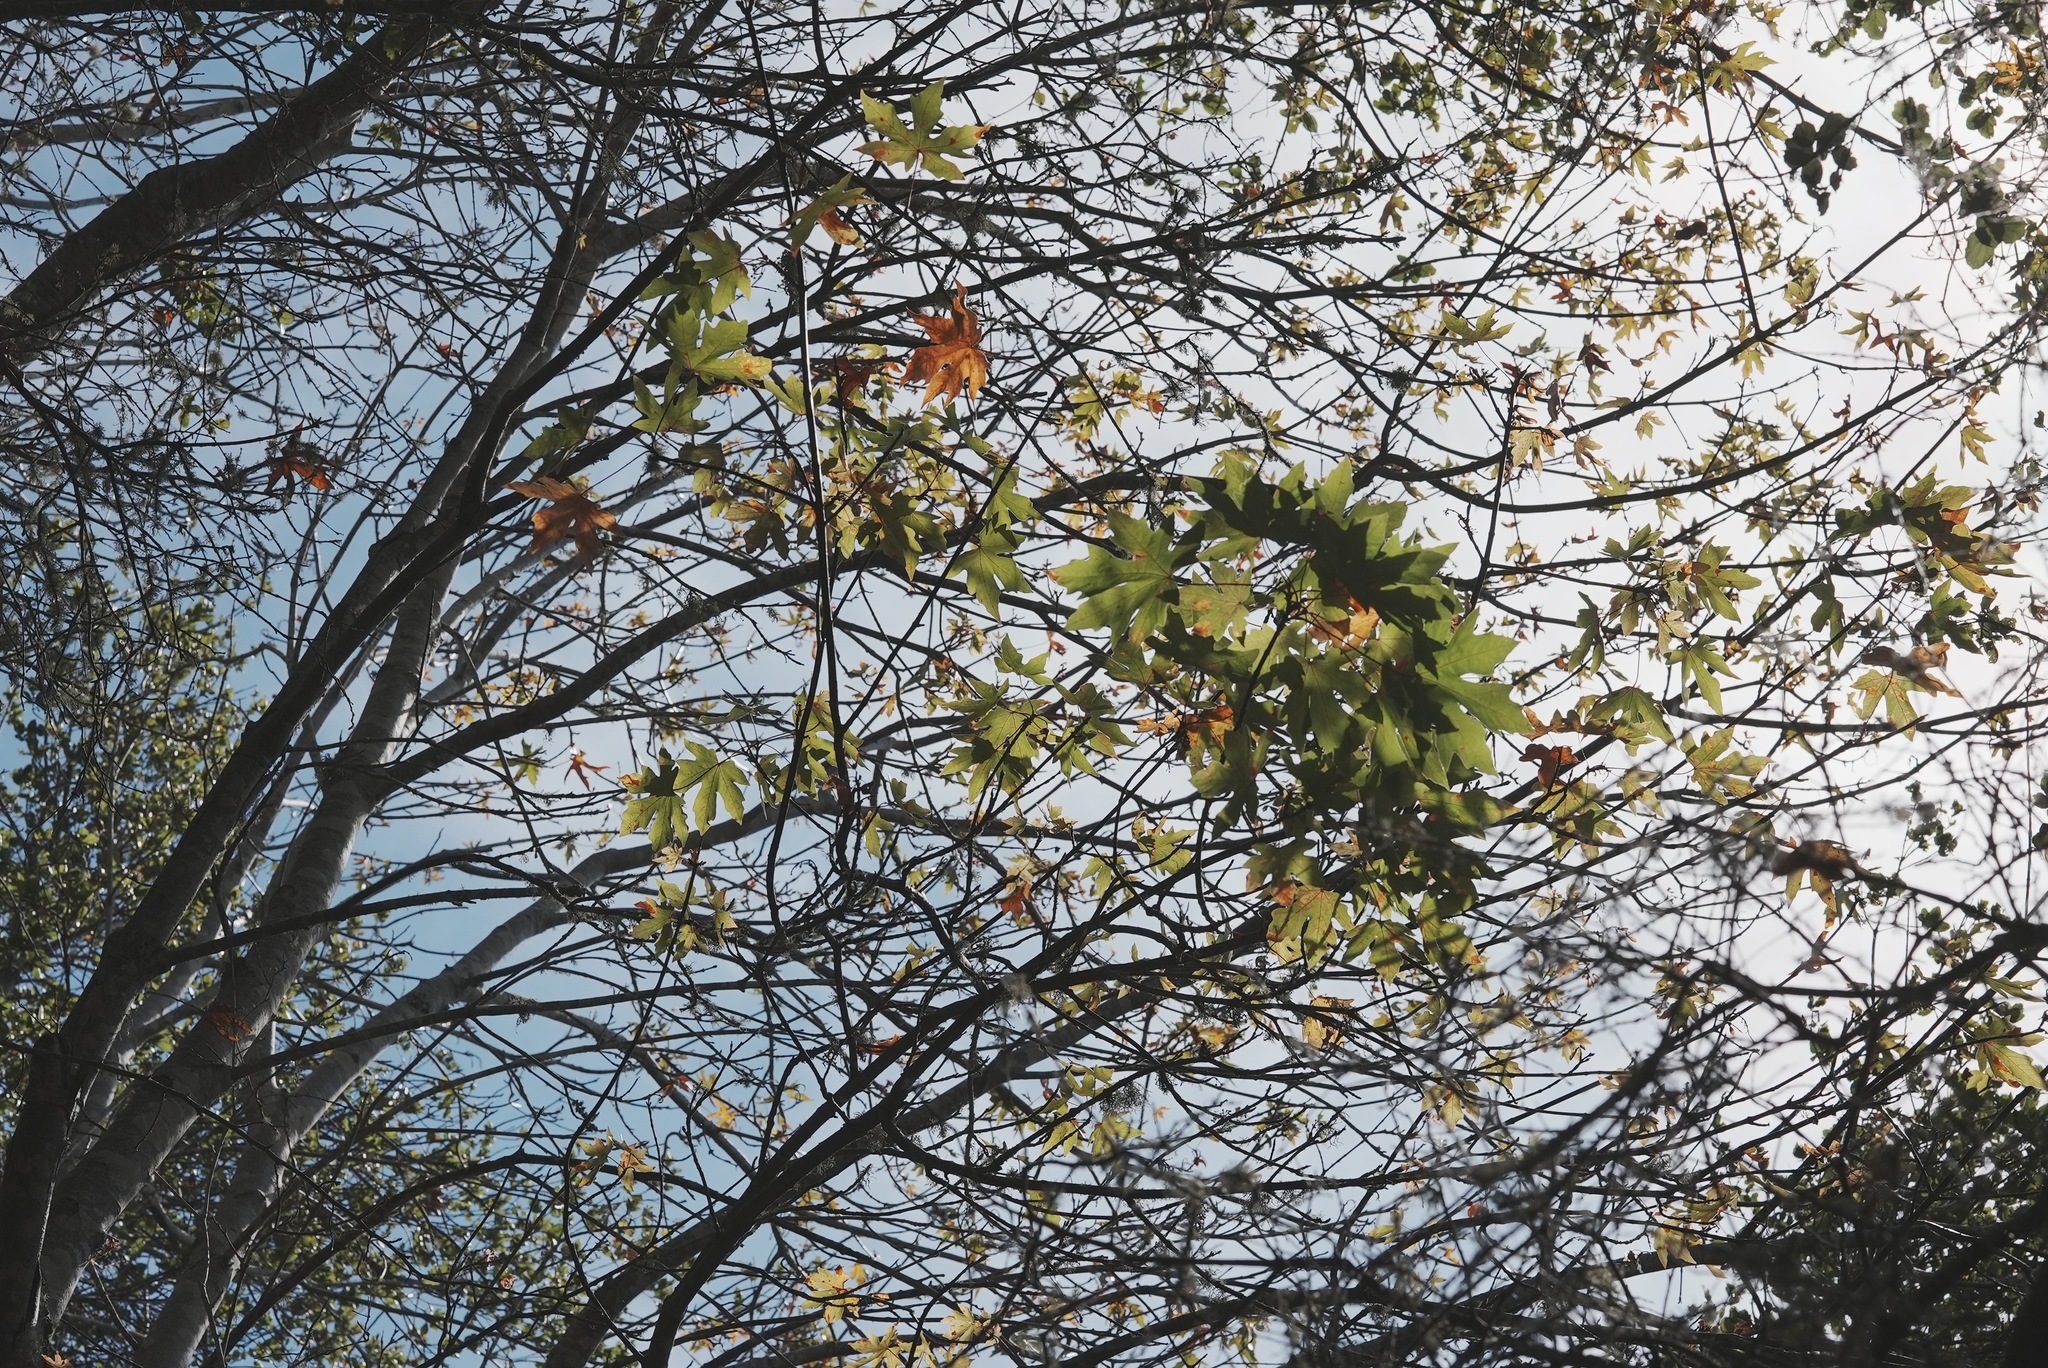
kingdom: Plantae
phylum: Tracheophyta
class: Magnoliopsida
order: Sapindales
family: Sapindaceae
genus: Acer
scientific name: Acer macrophyllum
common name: Oregon maple
